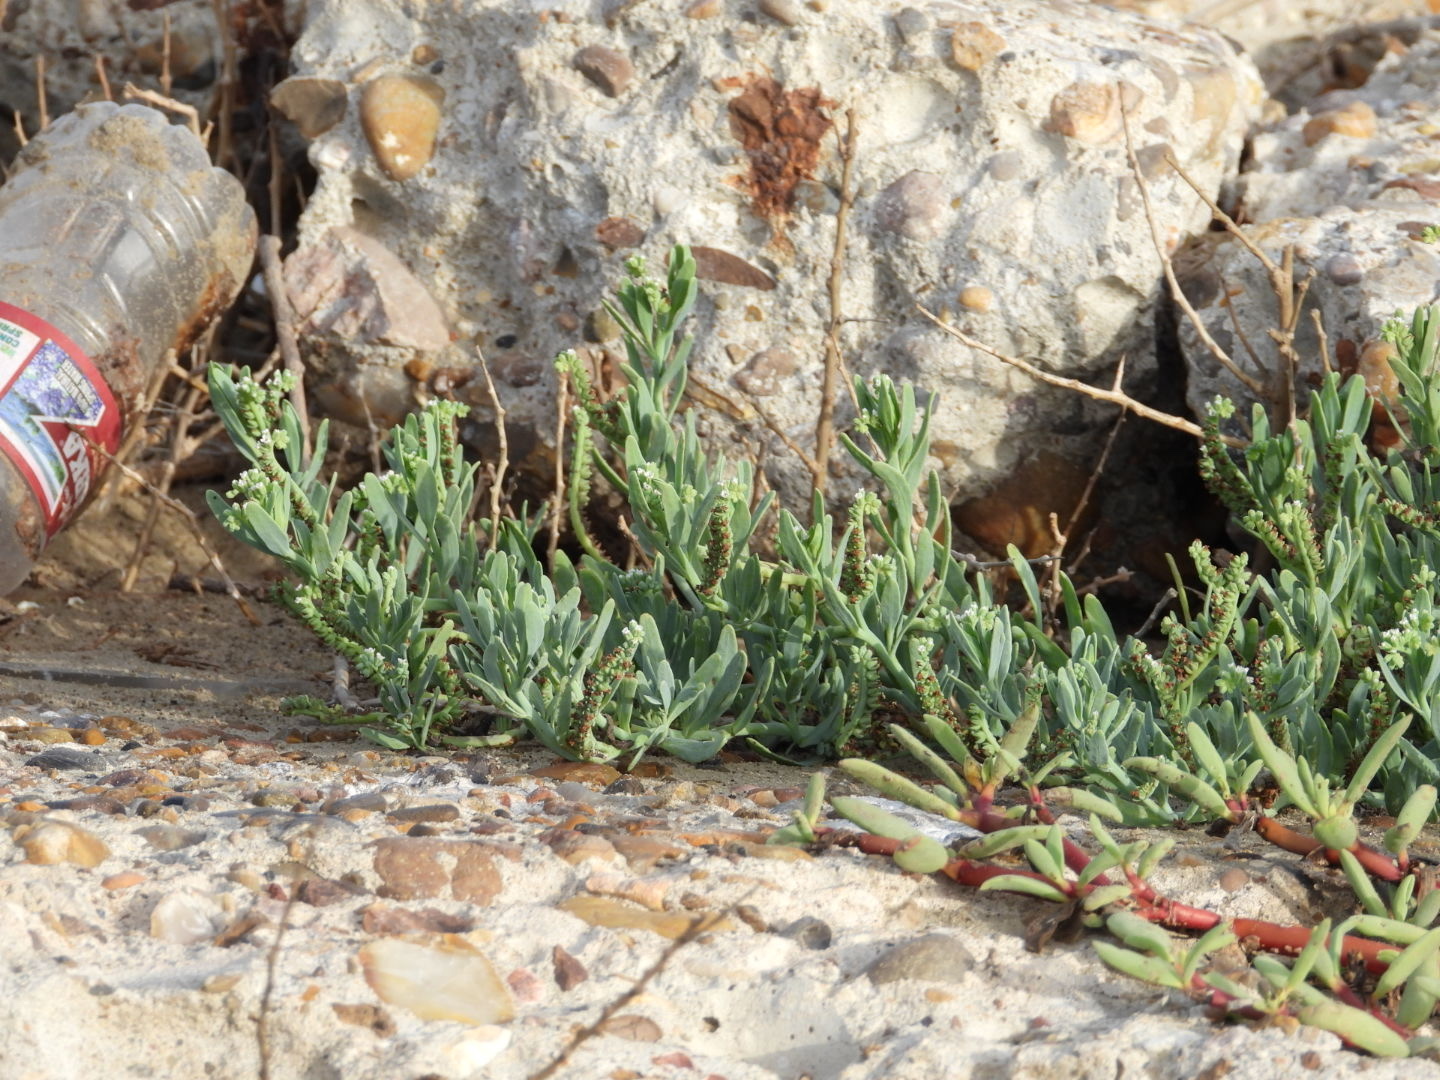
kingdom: Plantae
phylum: Tracheophyta
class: Magnoliopsida
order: Boraginales
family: Heliotropiaceae
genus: Heliotropium
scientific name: Heliotropium curassavicum
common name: Seaside heliotrope
